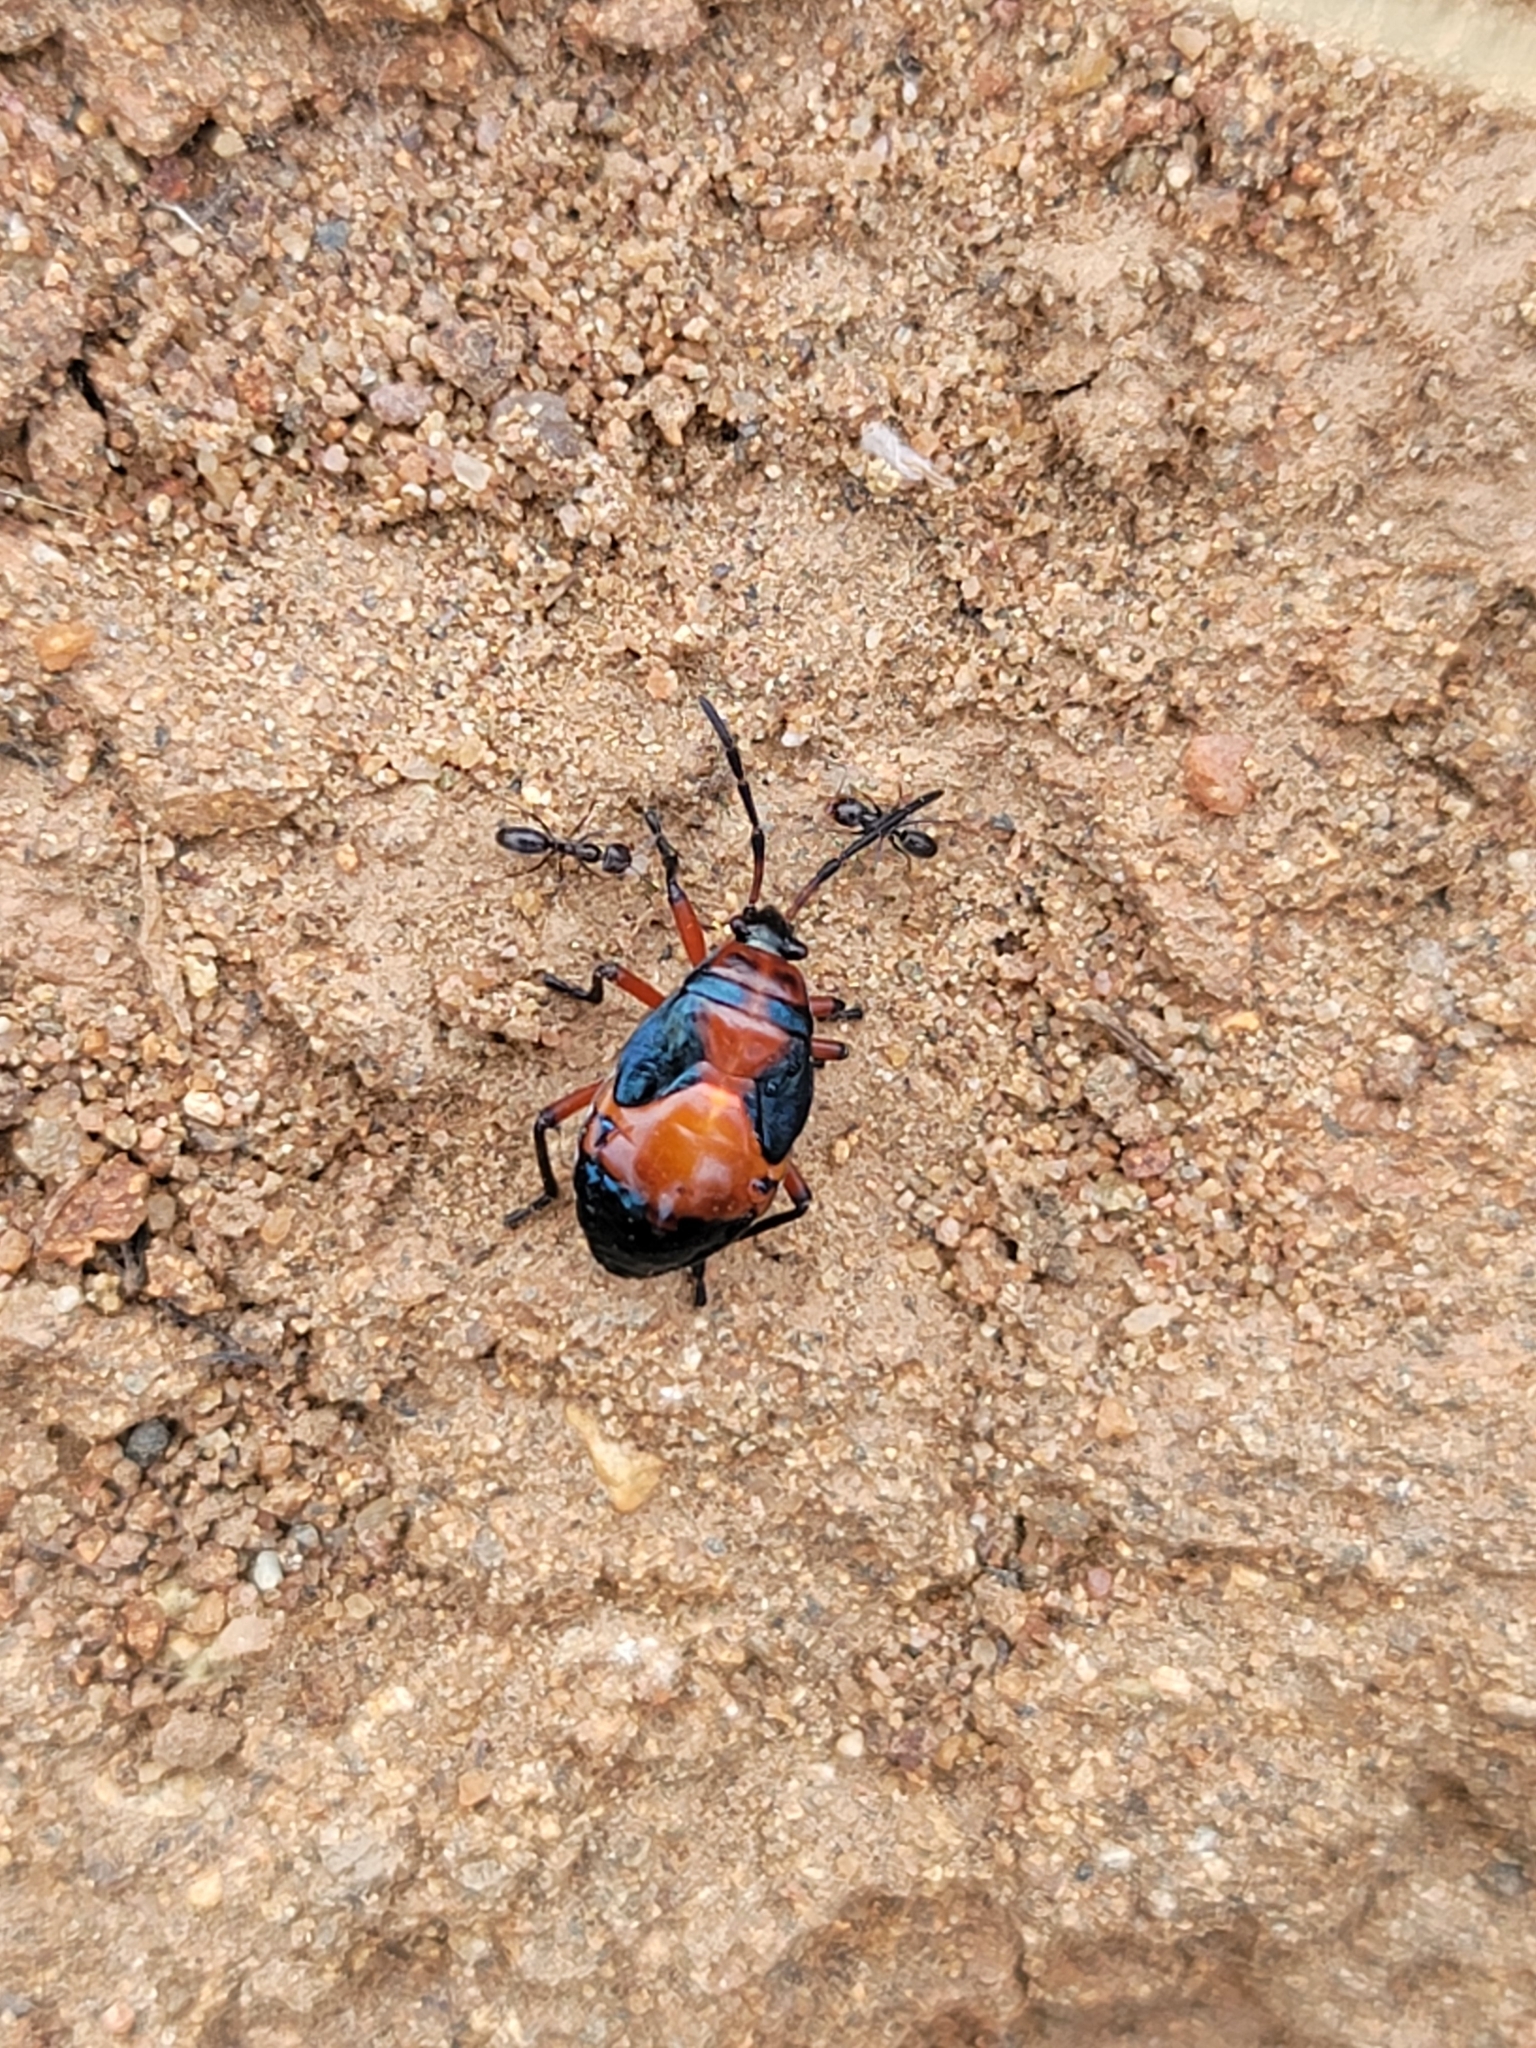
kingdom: Animalia
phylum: Arthropoda
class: Insecta
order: Hemiptera
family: Largidae
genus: Largus
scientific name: Largus californicus
